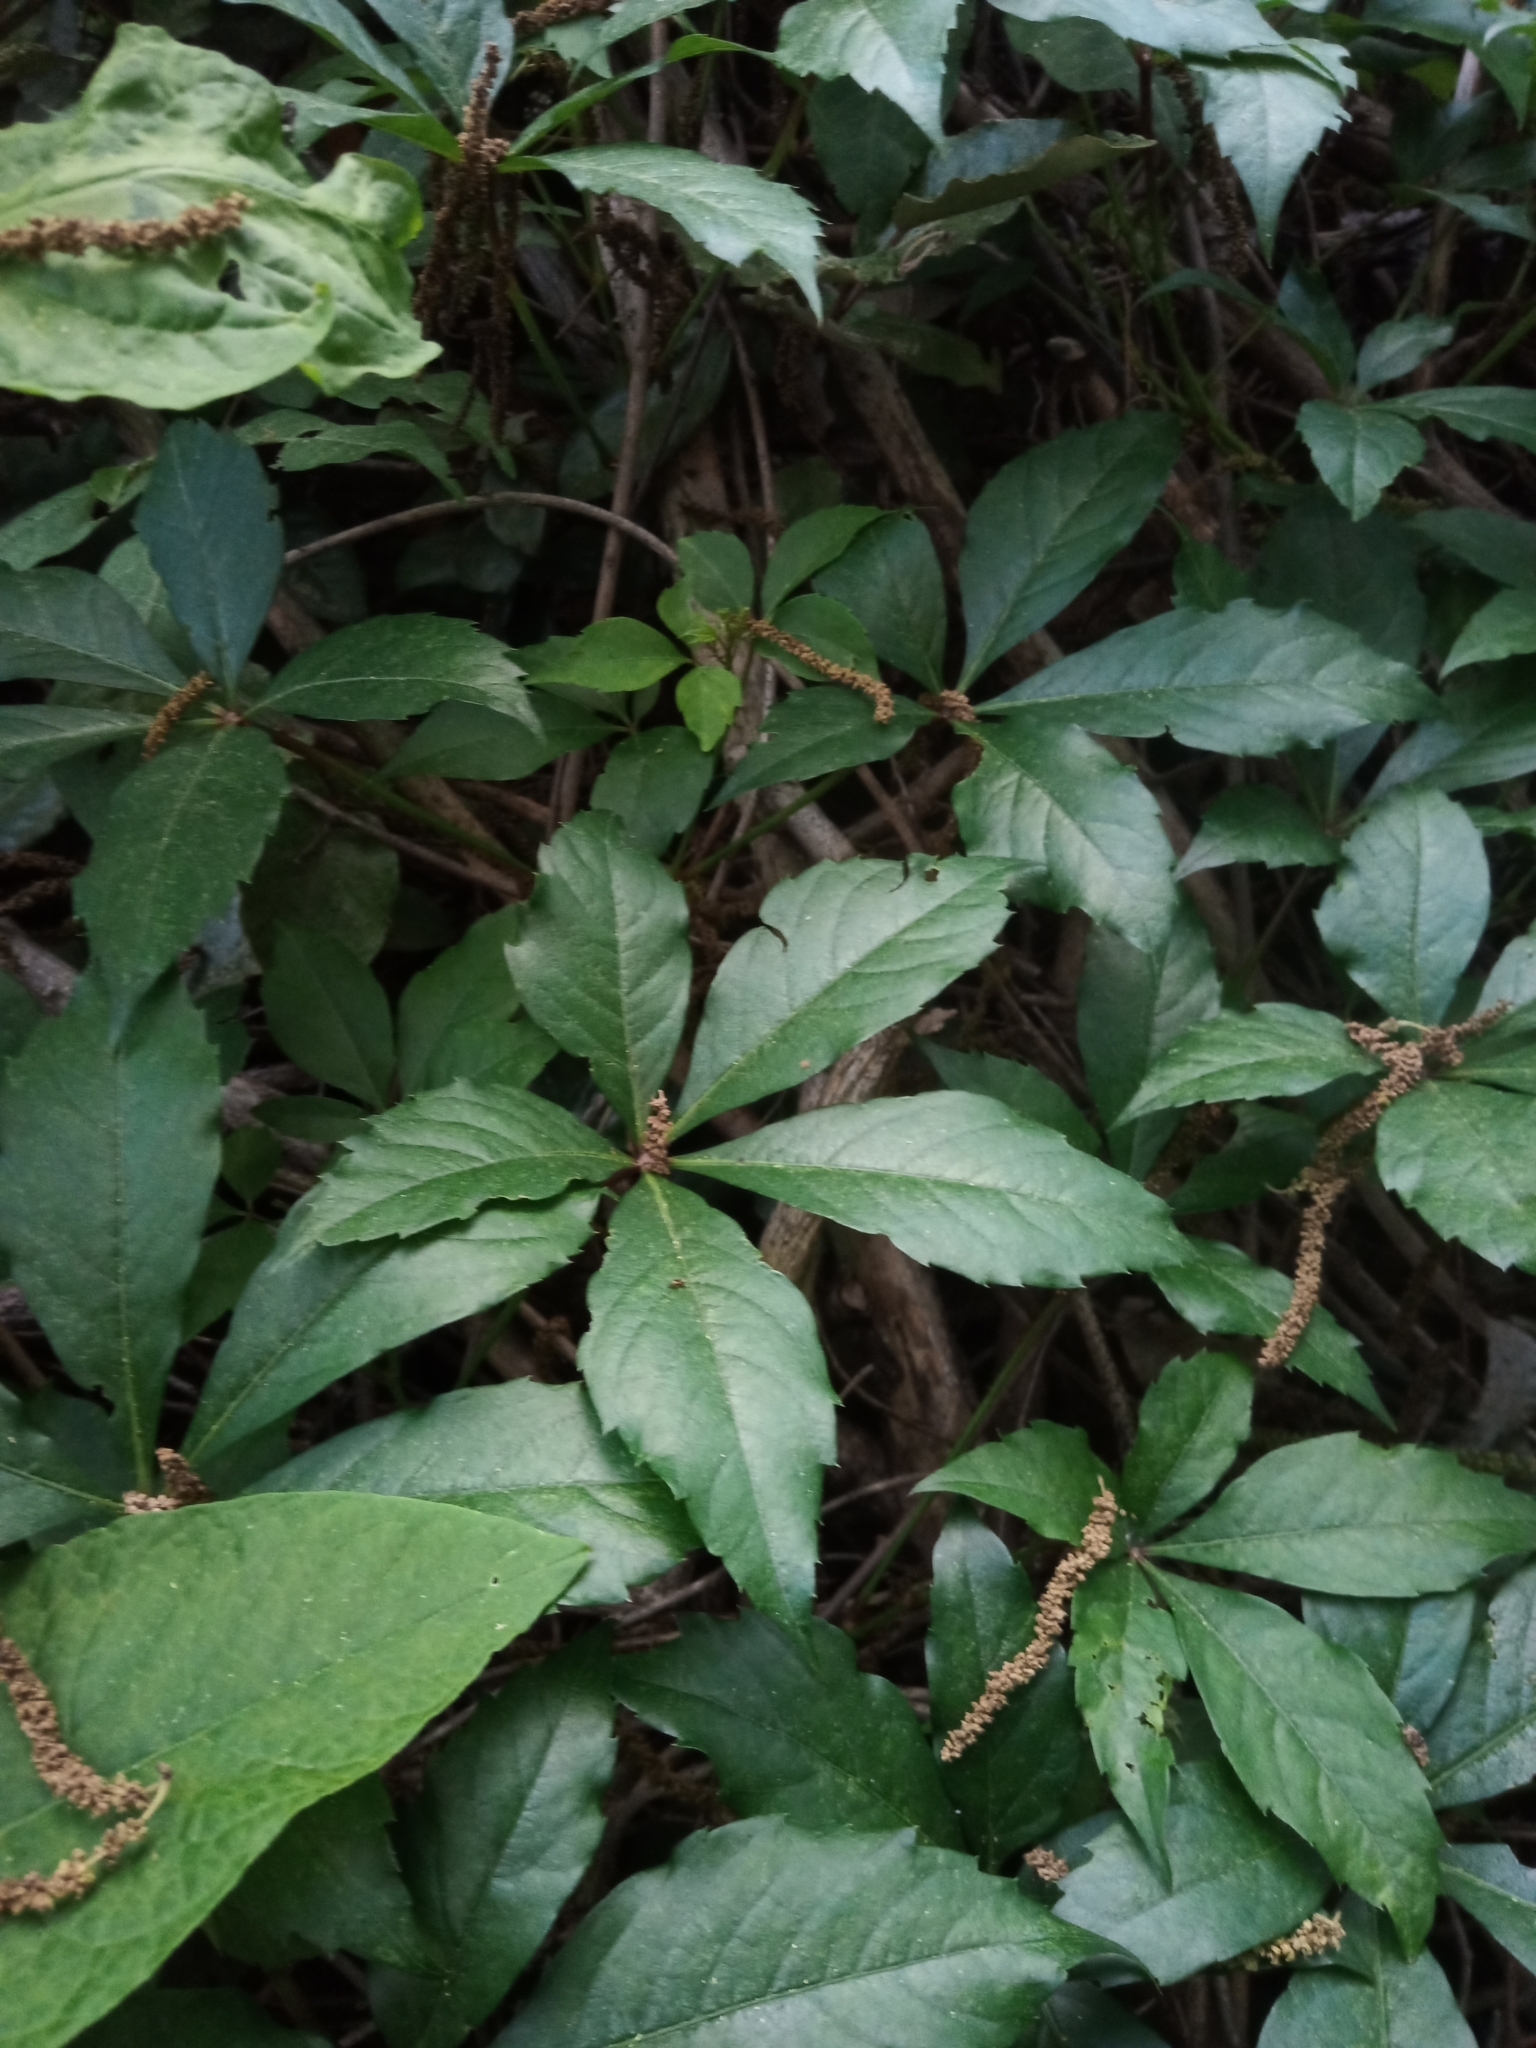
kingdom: Plantae
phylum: Tracheophyta
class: Magnoliopsida
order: Vitales
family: Vitaceae
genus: Parthenocissus
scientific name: Parthenocissus quinquefolia
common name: Virginia-creeper
